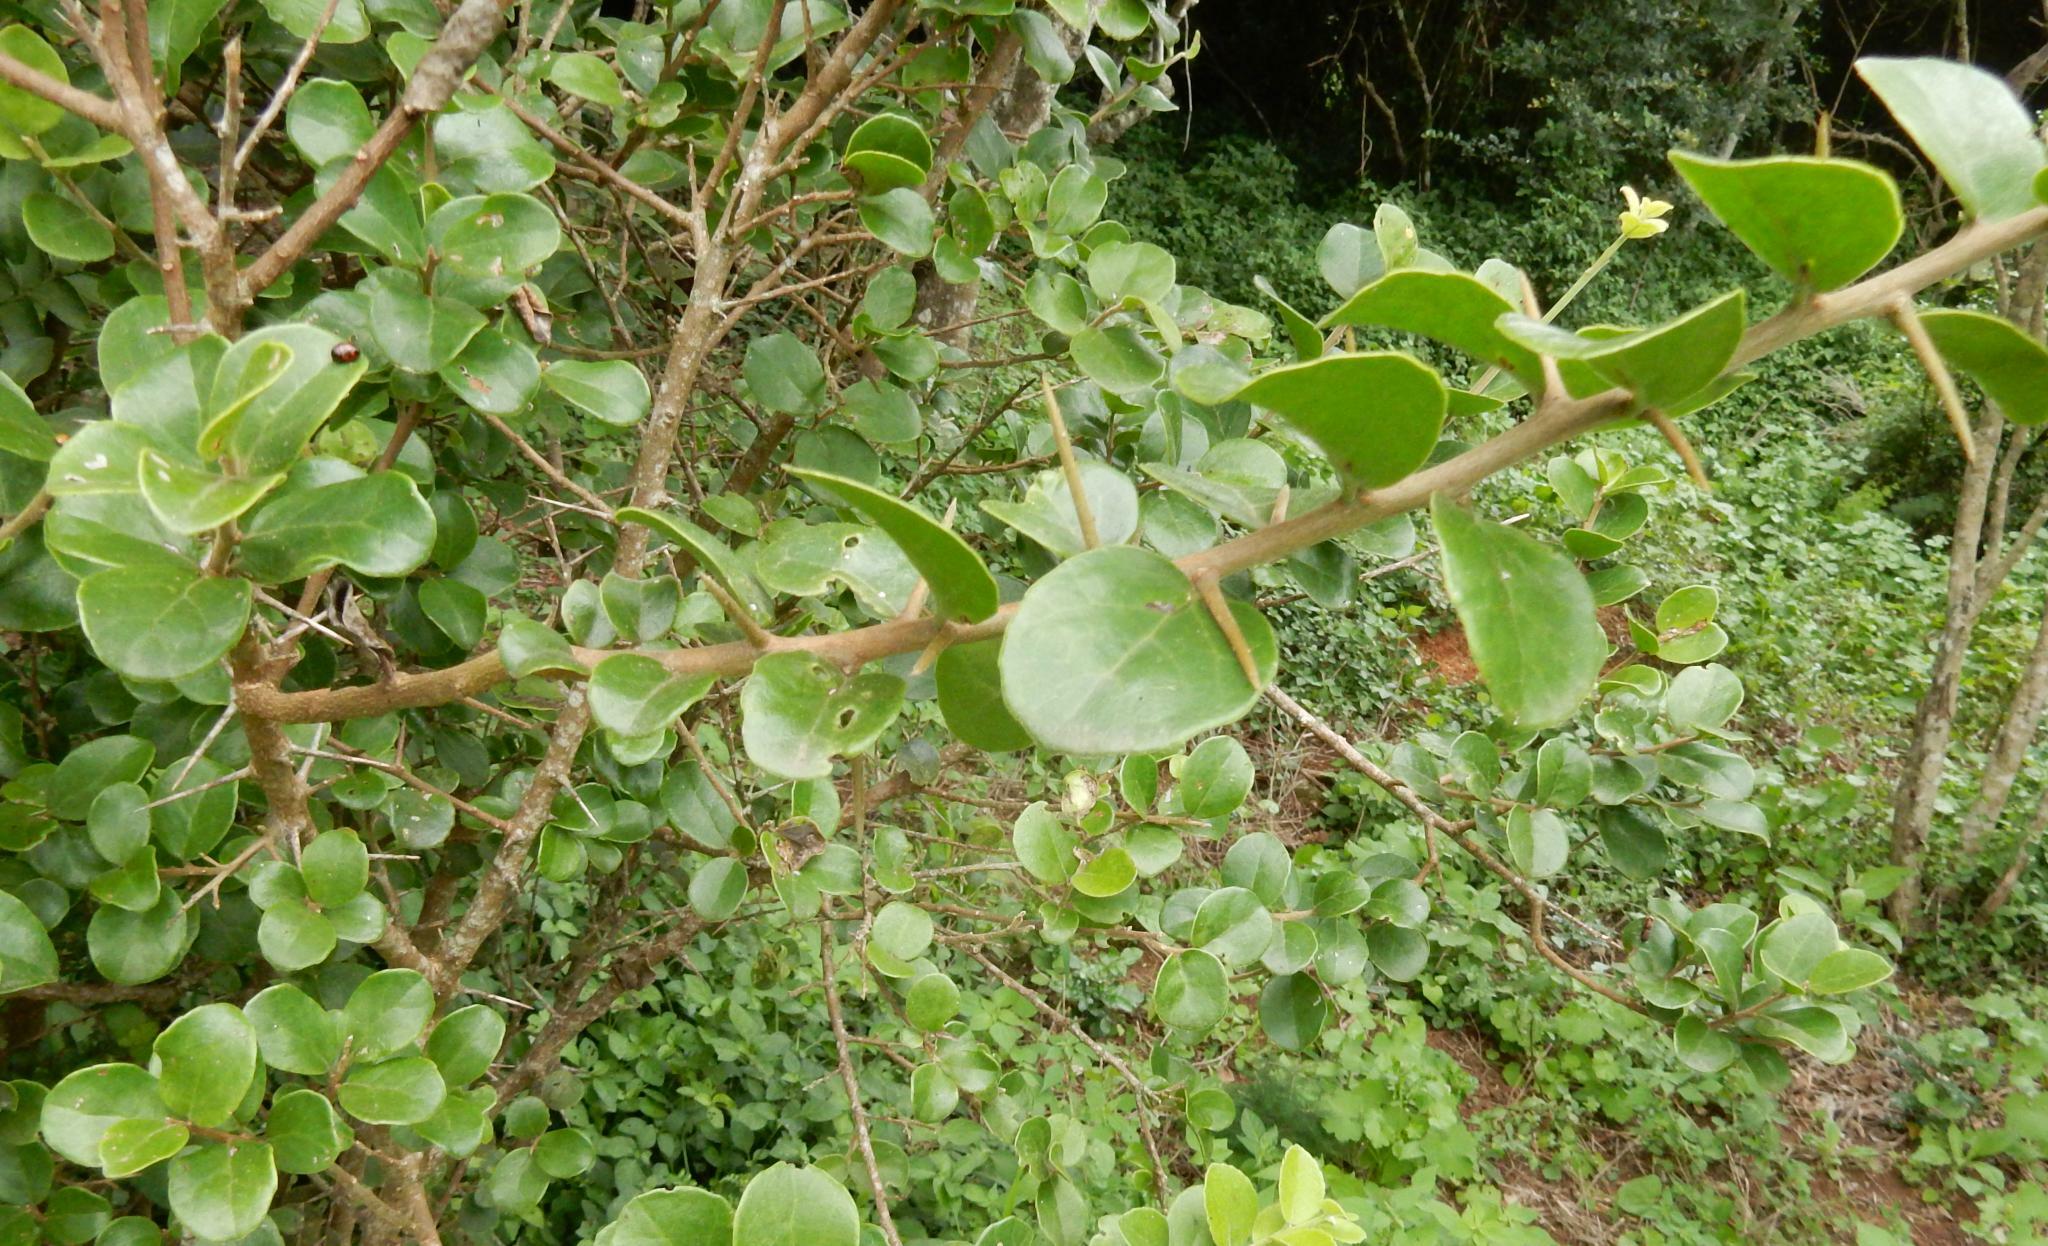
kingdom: Plantae
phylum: Tracheophyta
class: Magnoliopsida
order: Malpighiales
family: Salicaceae
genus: Dovyalis
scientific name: Dovyalis rotundifolia
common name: Dune sourberry
